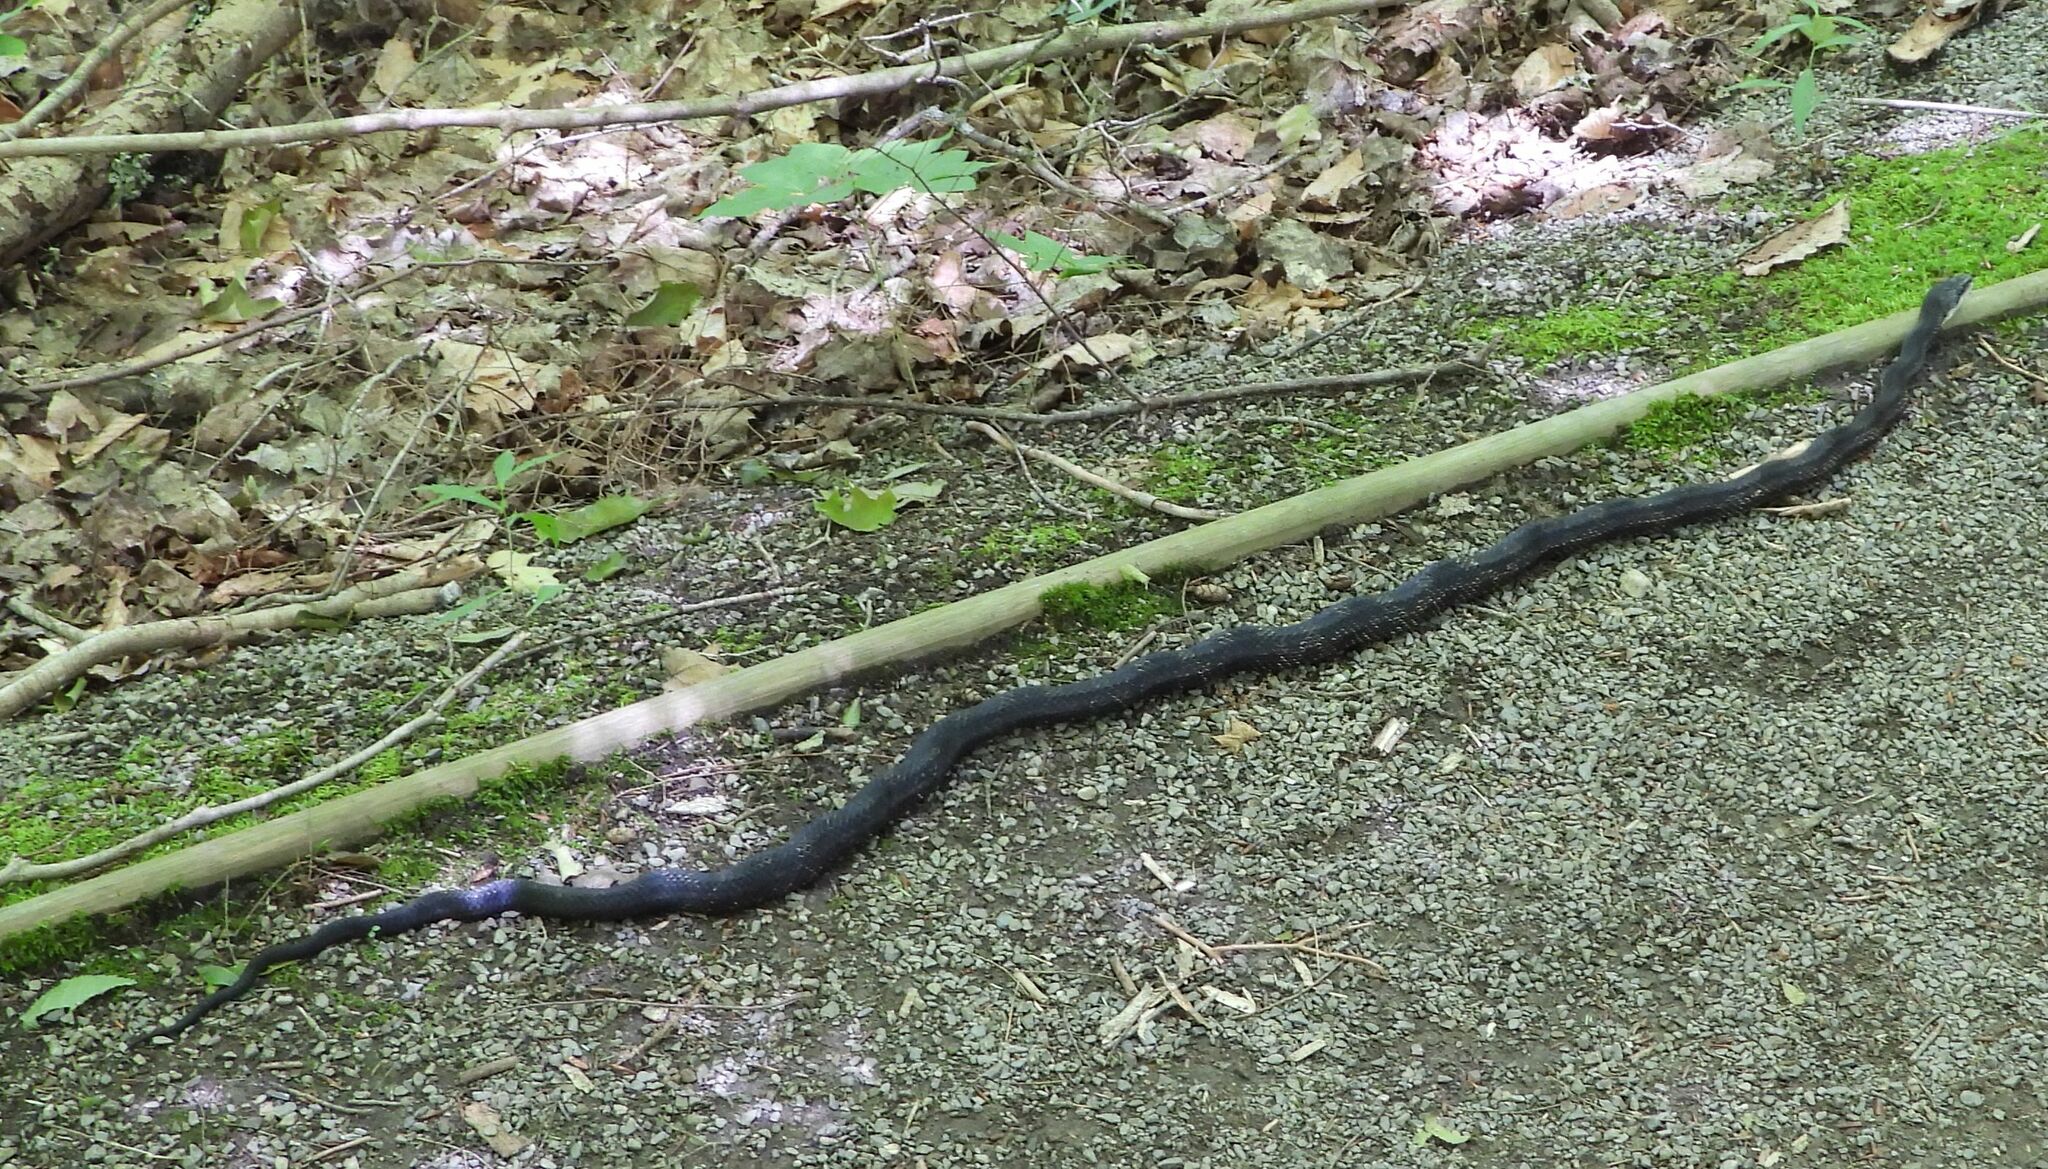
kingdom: Animalia
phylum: Chordata
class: Squamata
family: Colubridae
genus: Pantherophis
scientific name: Pantherophis spiloides
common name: Gray rat snake
